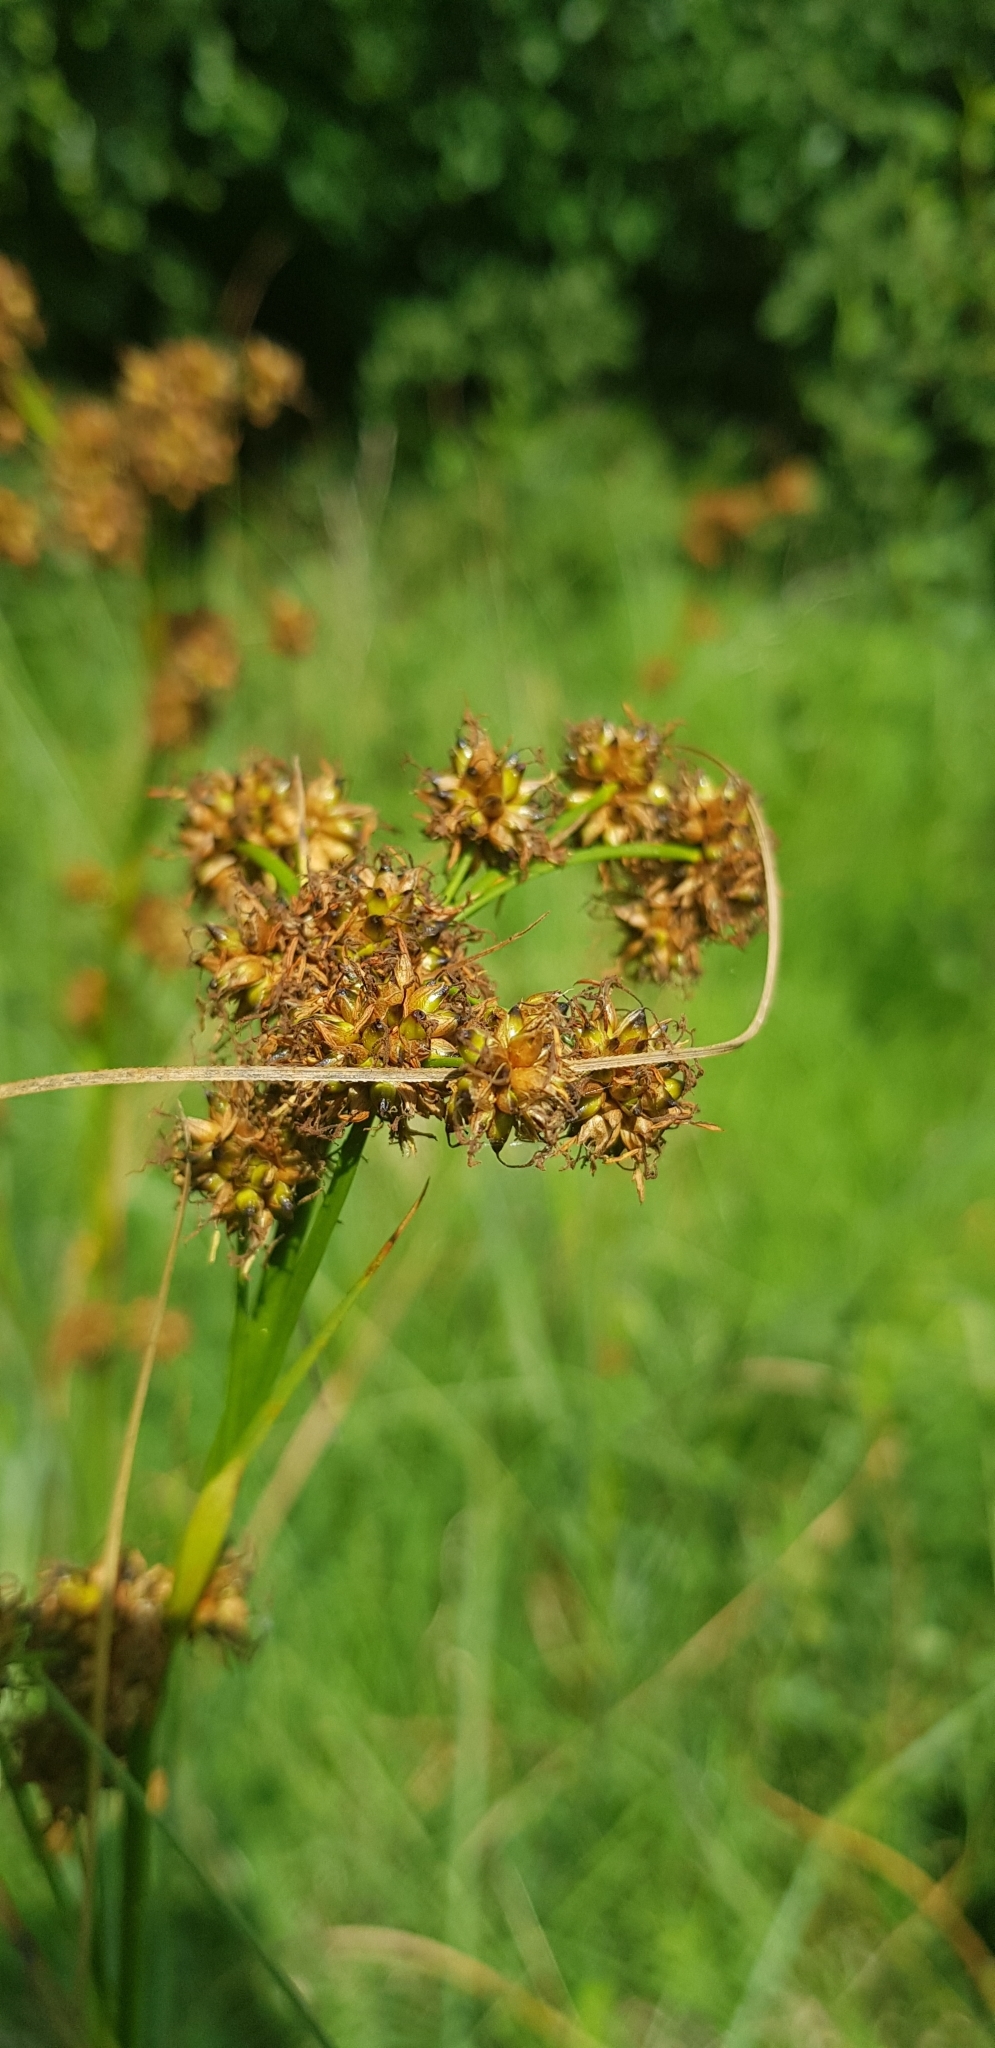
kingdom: Plantae
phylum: Tracheophyta
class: Liliopsida
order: Poales
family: Cyperaceae
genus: Cladium
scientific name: Cladium mariscus
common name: Great fen-sedge
